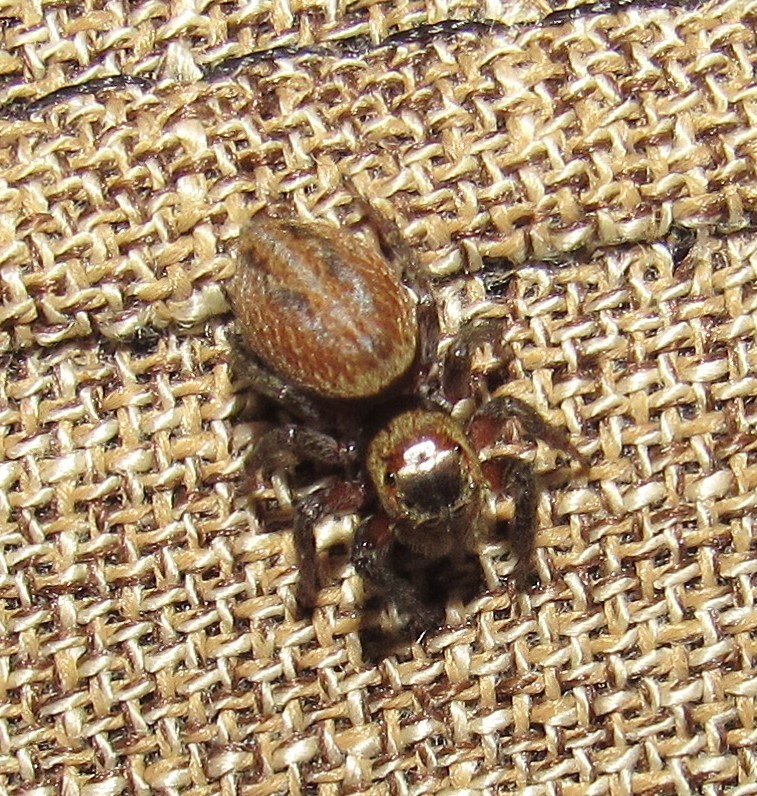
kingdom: Animalia
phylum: Arthropoda
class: Arachnida
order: Araneae
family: Salticidae
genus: Hasarius
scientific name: Hasarius adansoni
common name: Jumping spider
